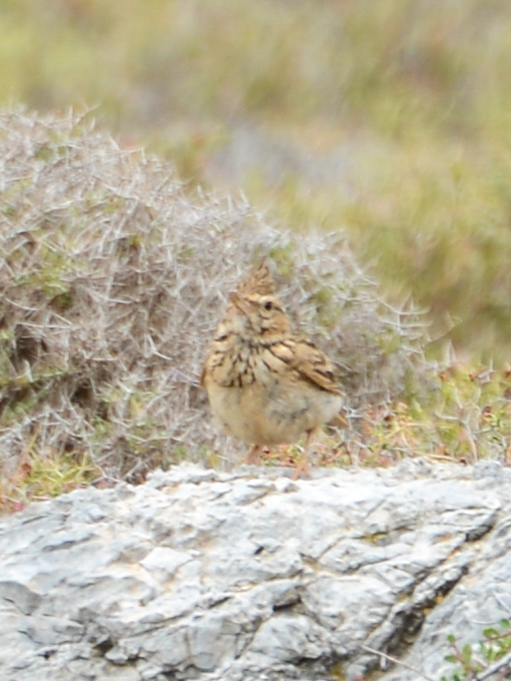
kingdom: Animalia
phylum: Chordata
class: Aves
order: Passeriformes
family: Alaudidae
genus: Galerida
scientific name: Galerida cristata
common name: Crested lark
